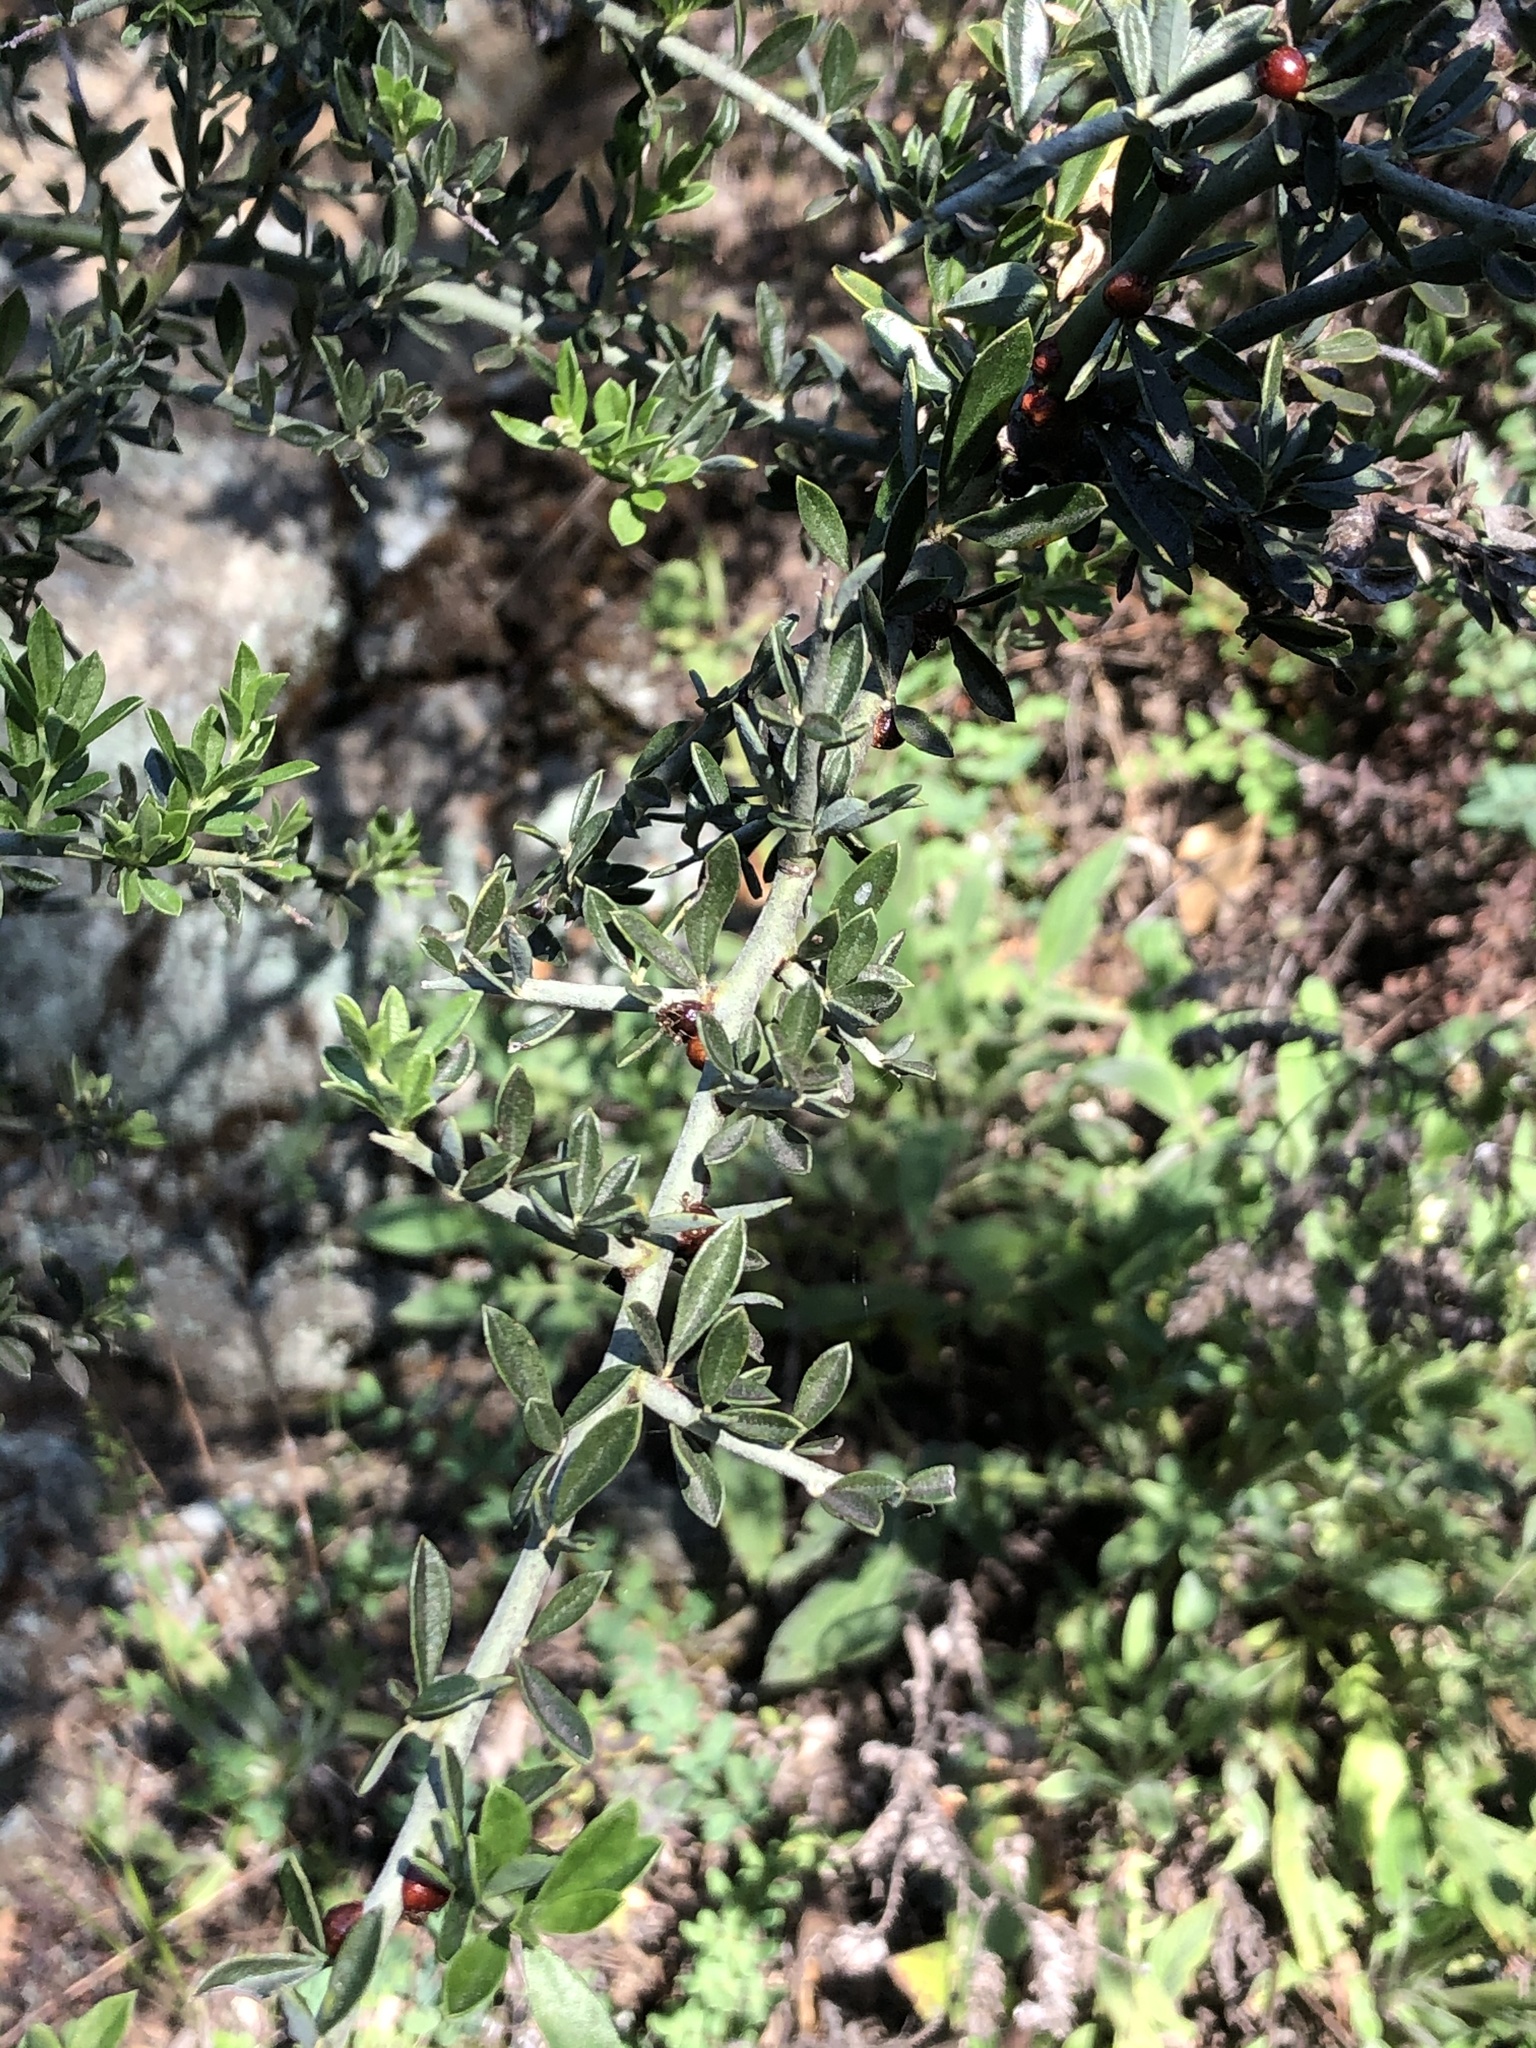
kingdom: Plantae
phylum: Tracheophyta
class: Magnoliopsida
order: Fabales
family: Fabaceae
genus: Pickeringia
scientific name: Pickeringia montana
